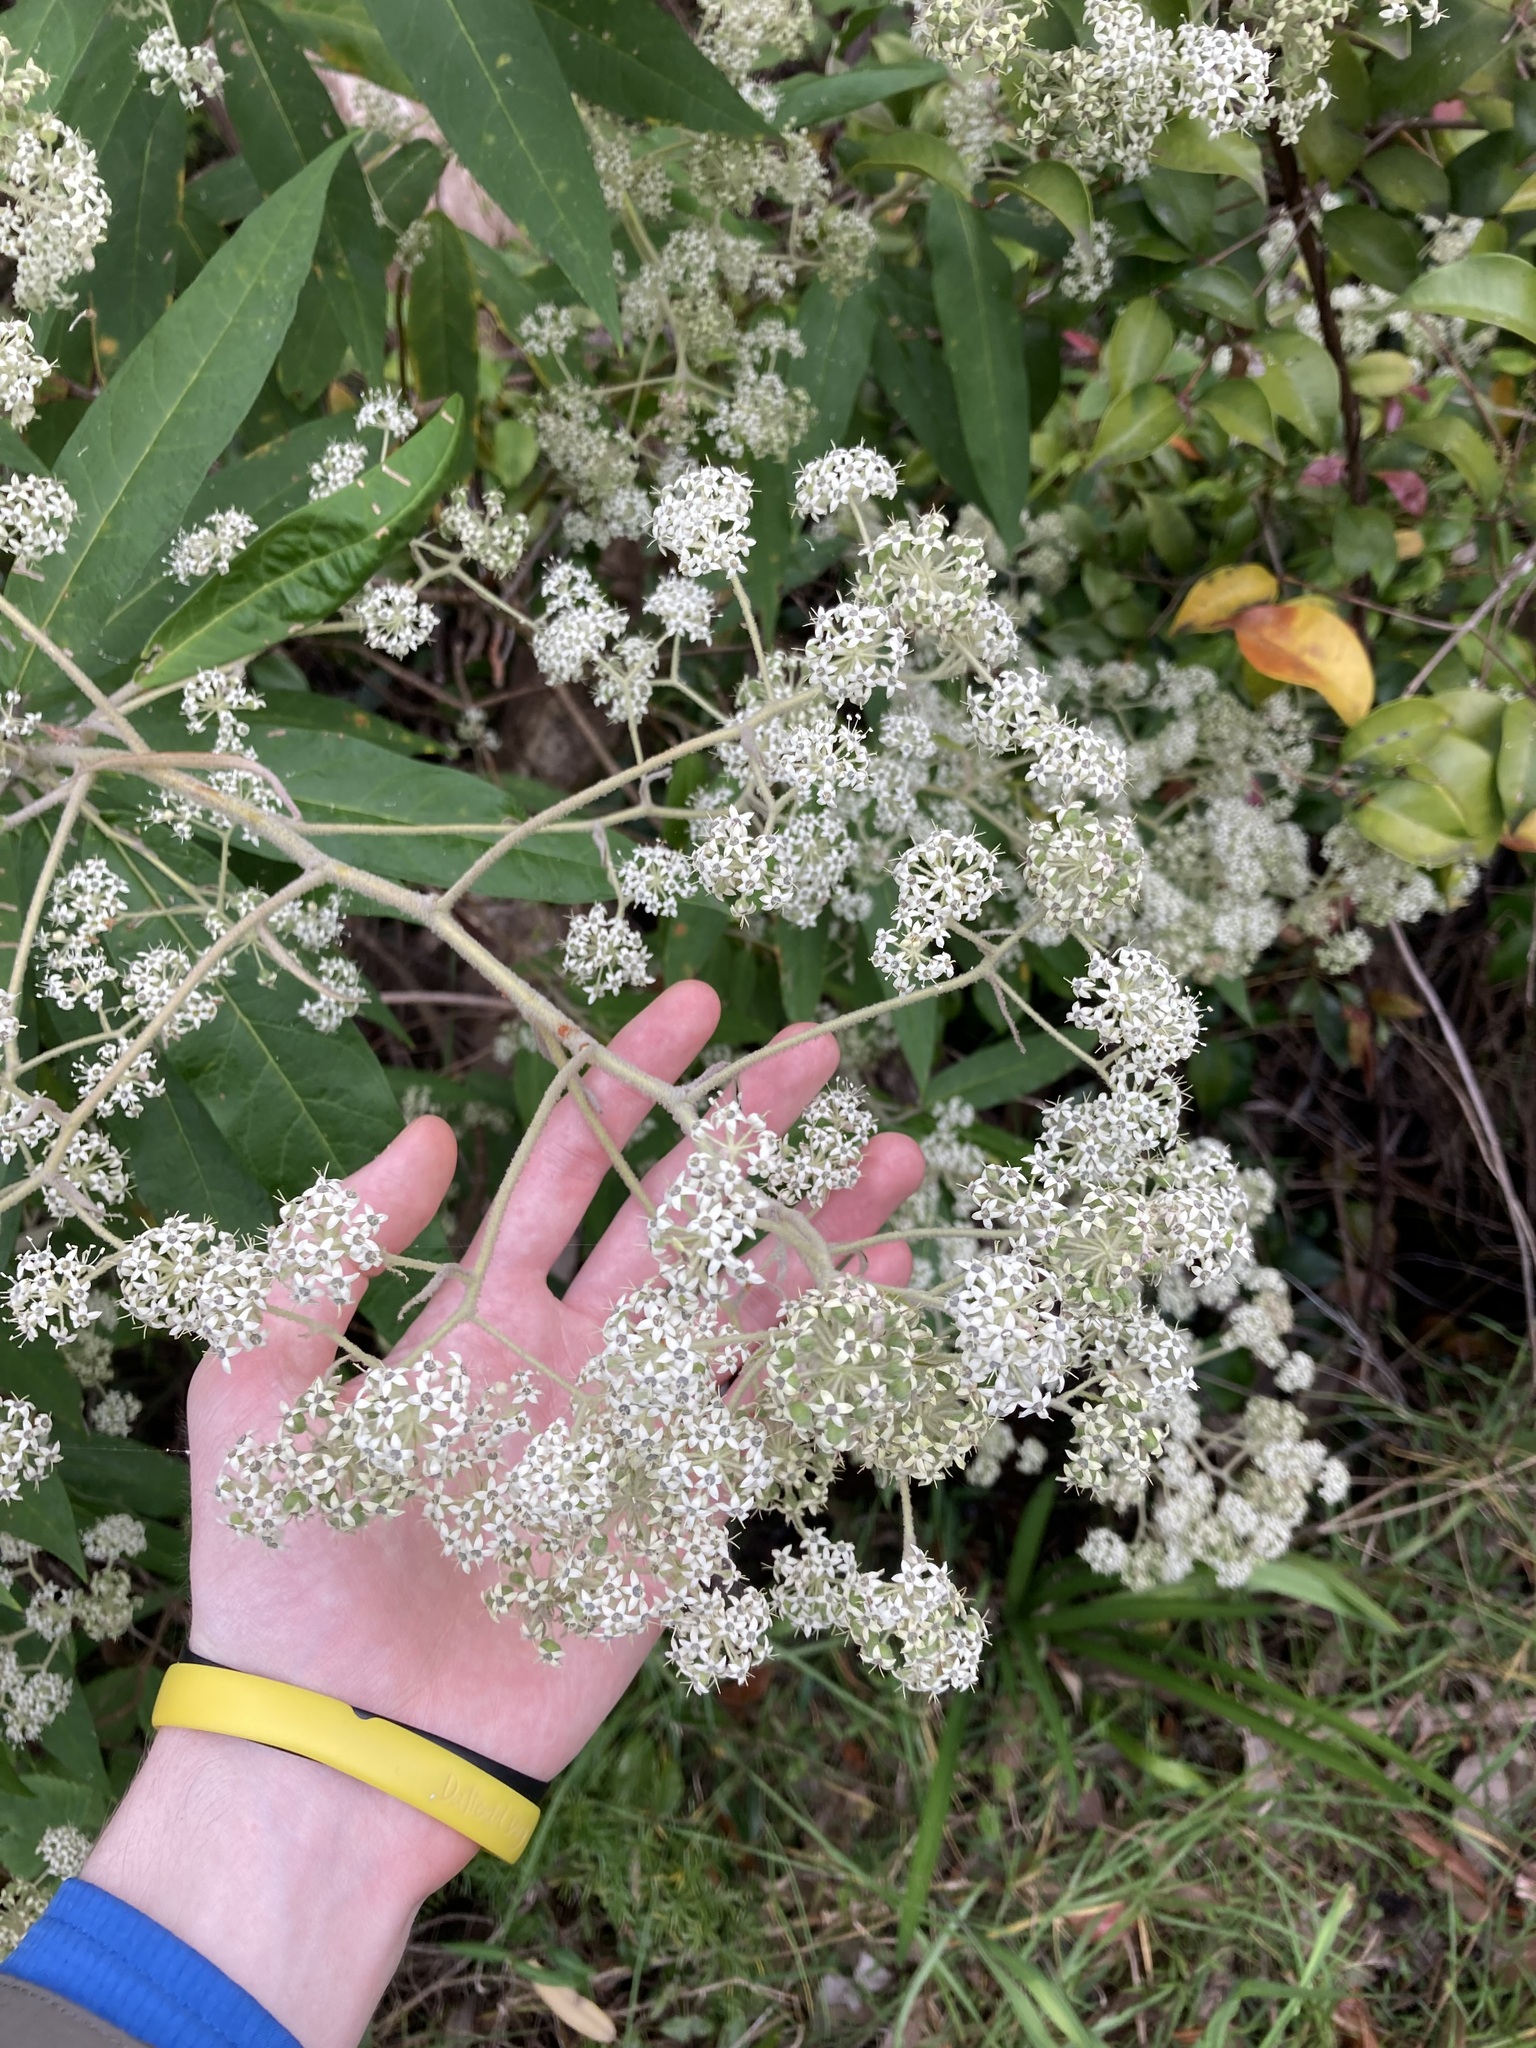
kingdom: Plantae
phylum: Tracheophyta
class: Magnoliopsida
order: Apiales
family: Araliaceae
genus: Astrotricha
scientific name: Astrotricha floccosa
